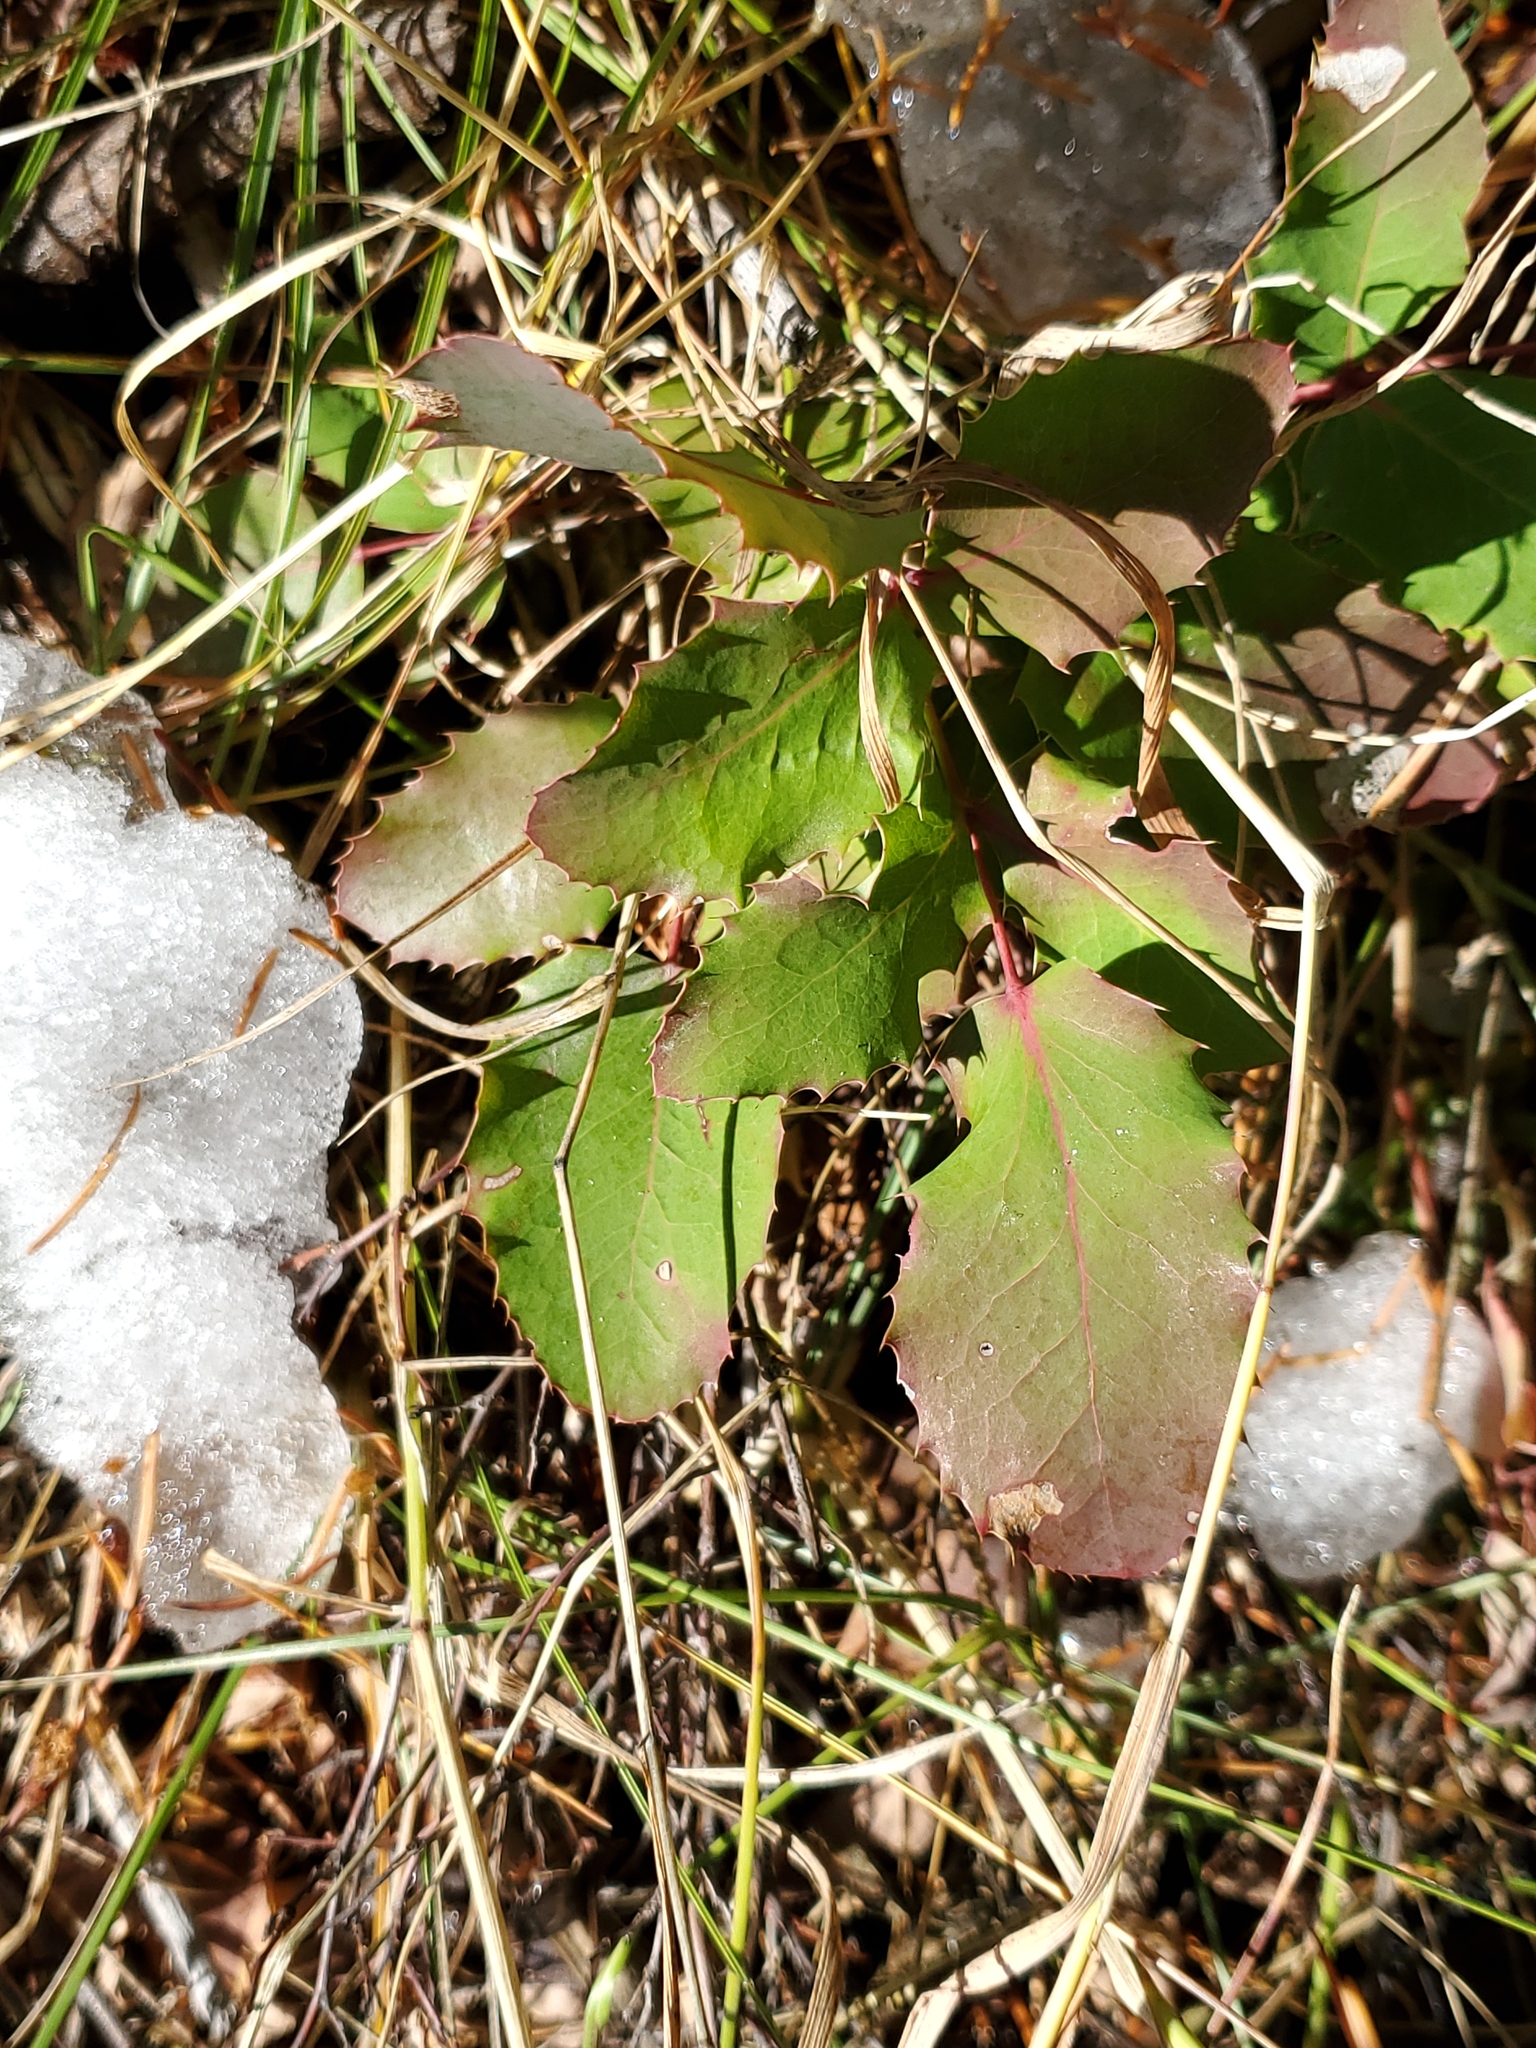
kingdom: Plantae
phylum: Tracheophyta
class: Magnoliopsida
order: Ranunculales
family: Berberidaceae
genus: Mahonia
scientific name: Mahonia repens
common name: Creeping oregon-grape
